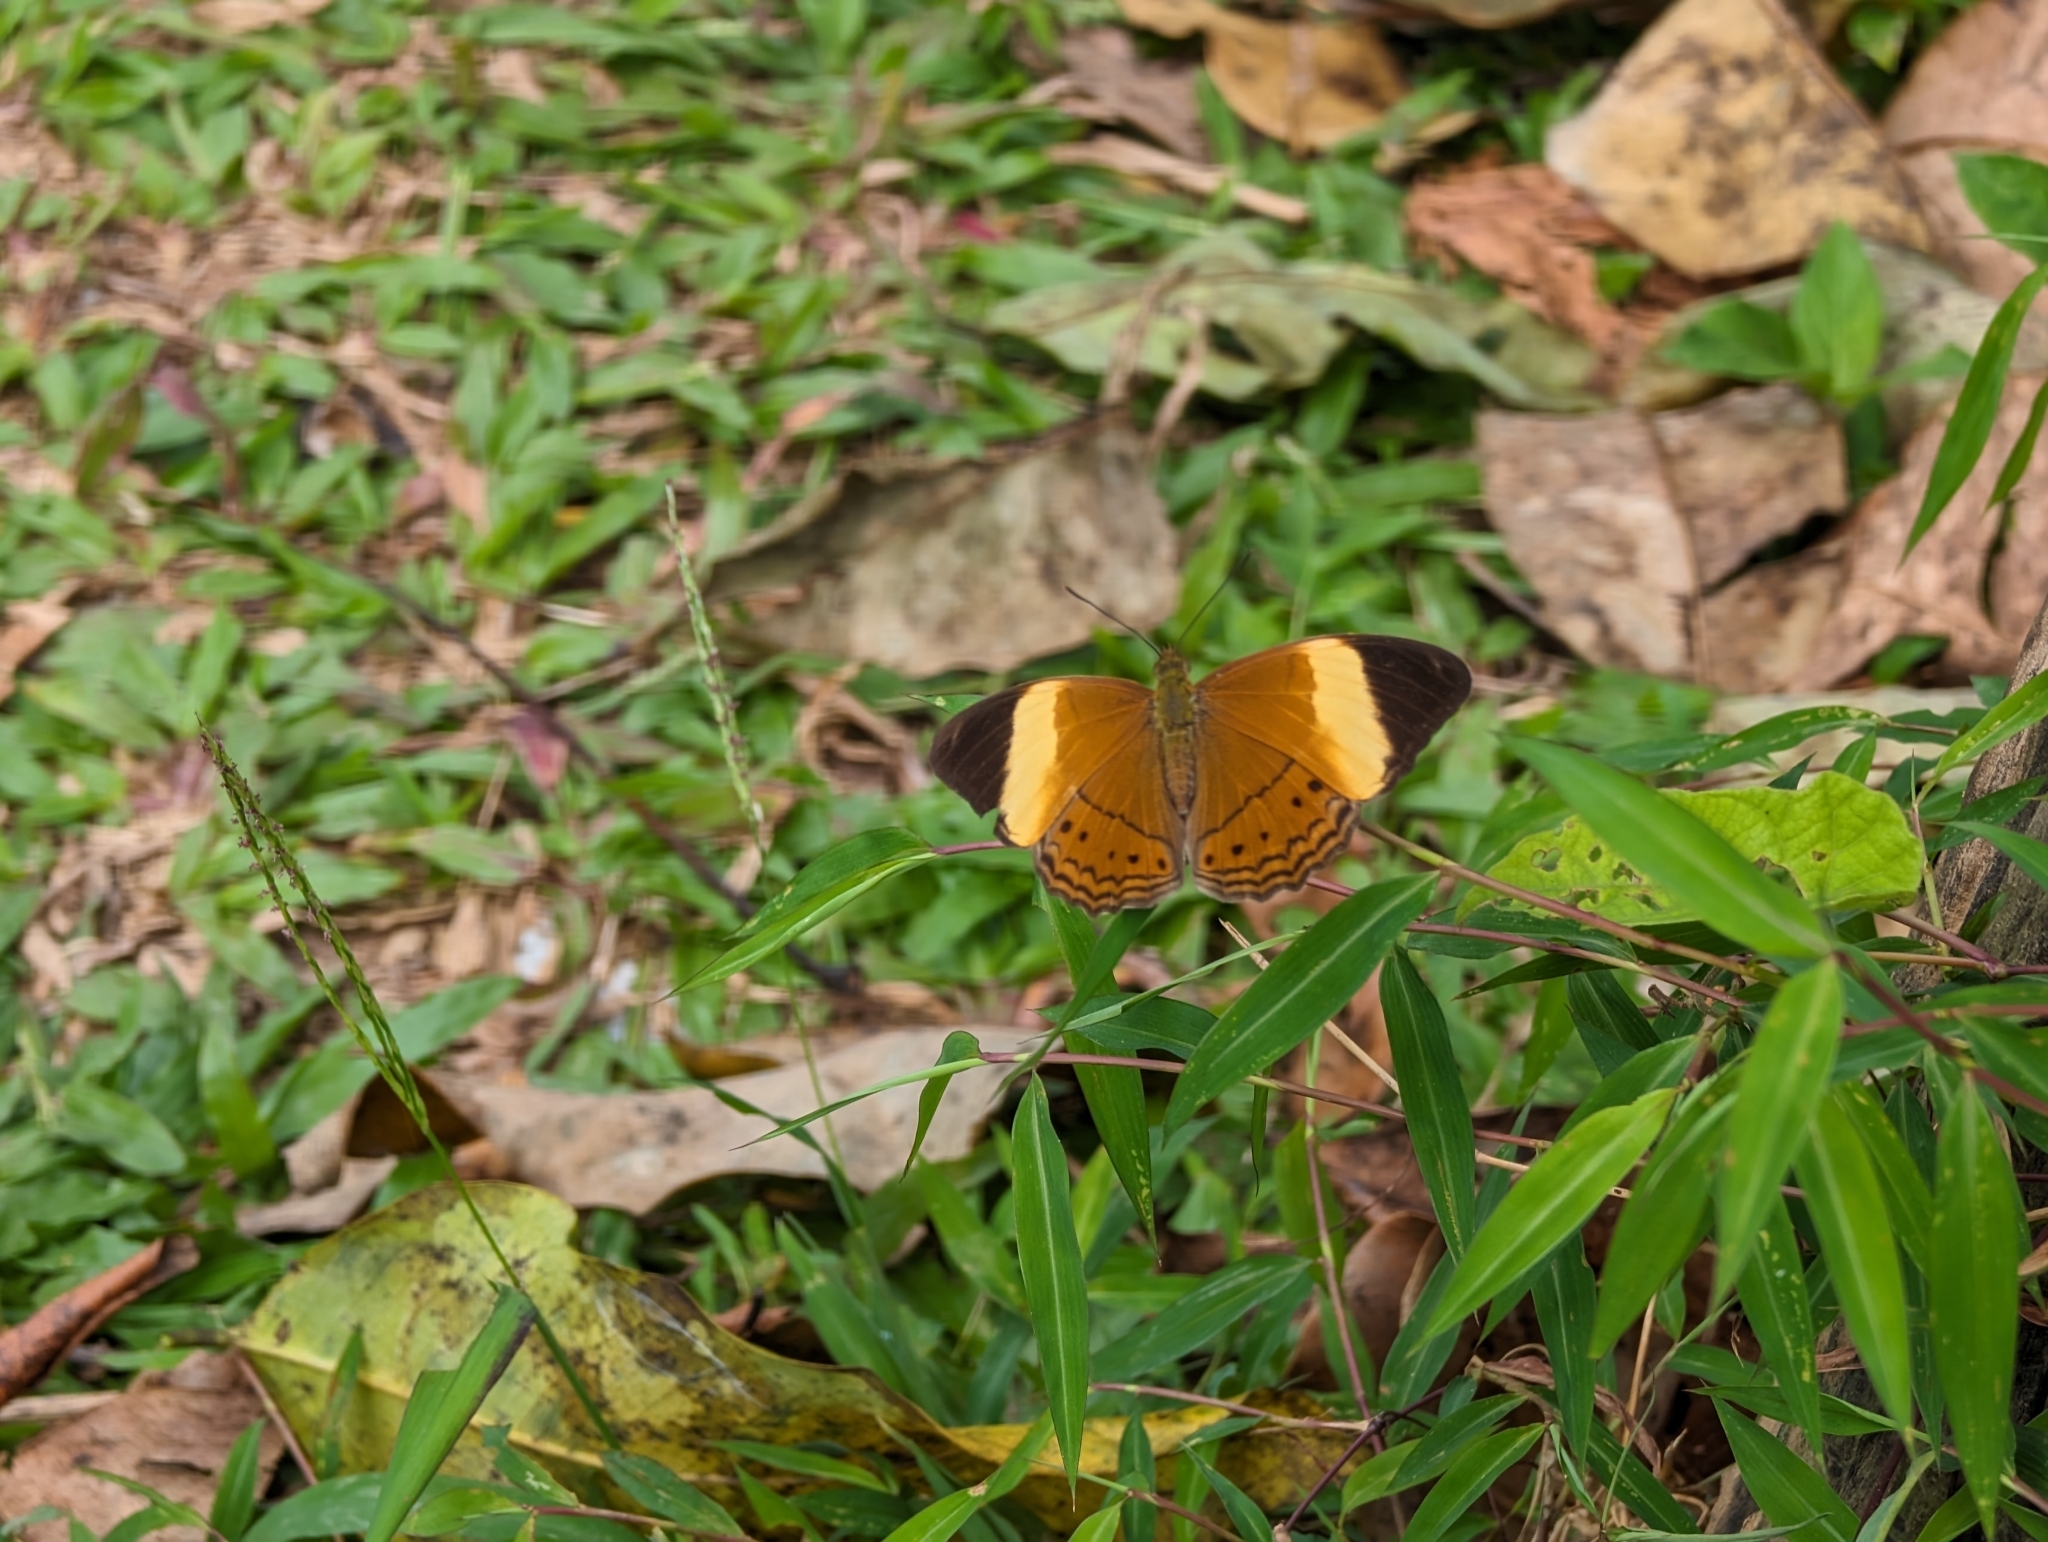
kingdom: Animalia
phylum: Arthropoda
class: Insecta
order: Lepidoptera
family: Nymphalidae
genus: Cirrochroa
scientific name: Cirrochroa orissa
